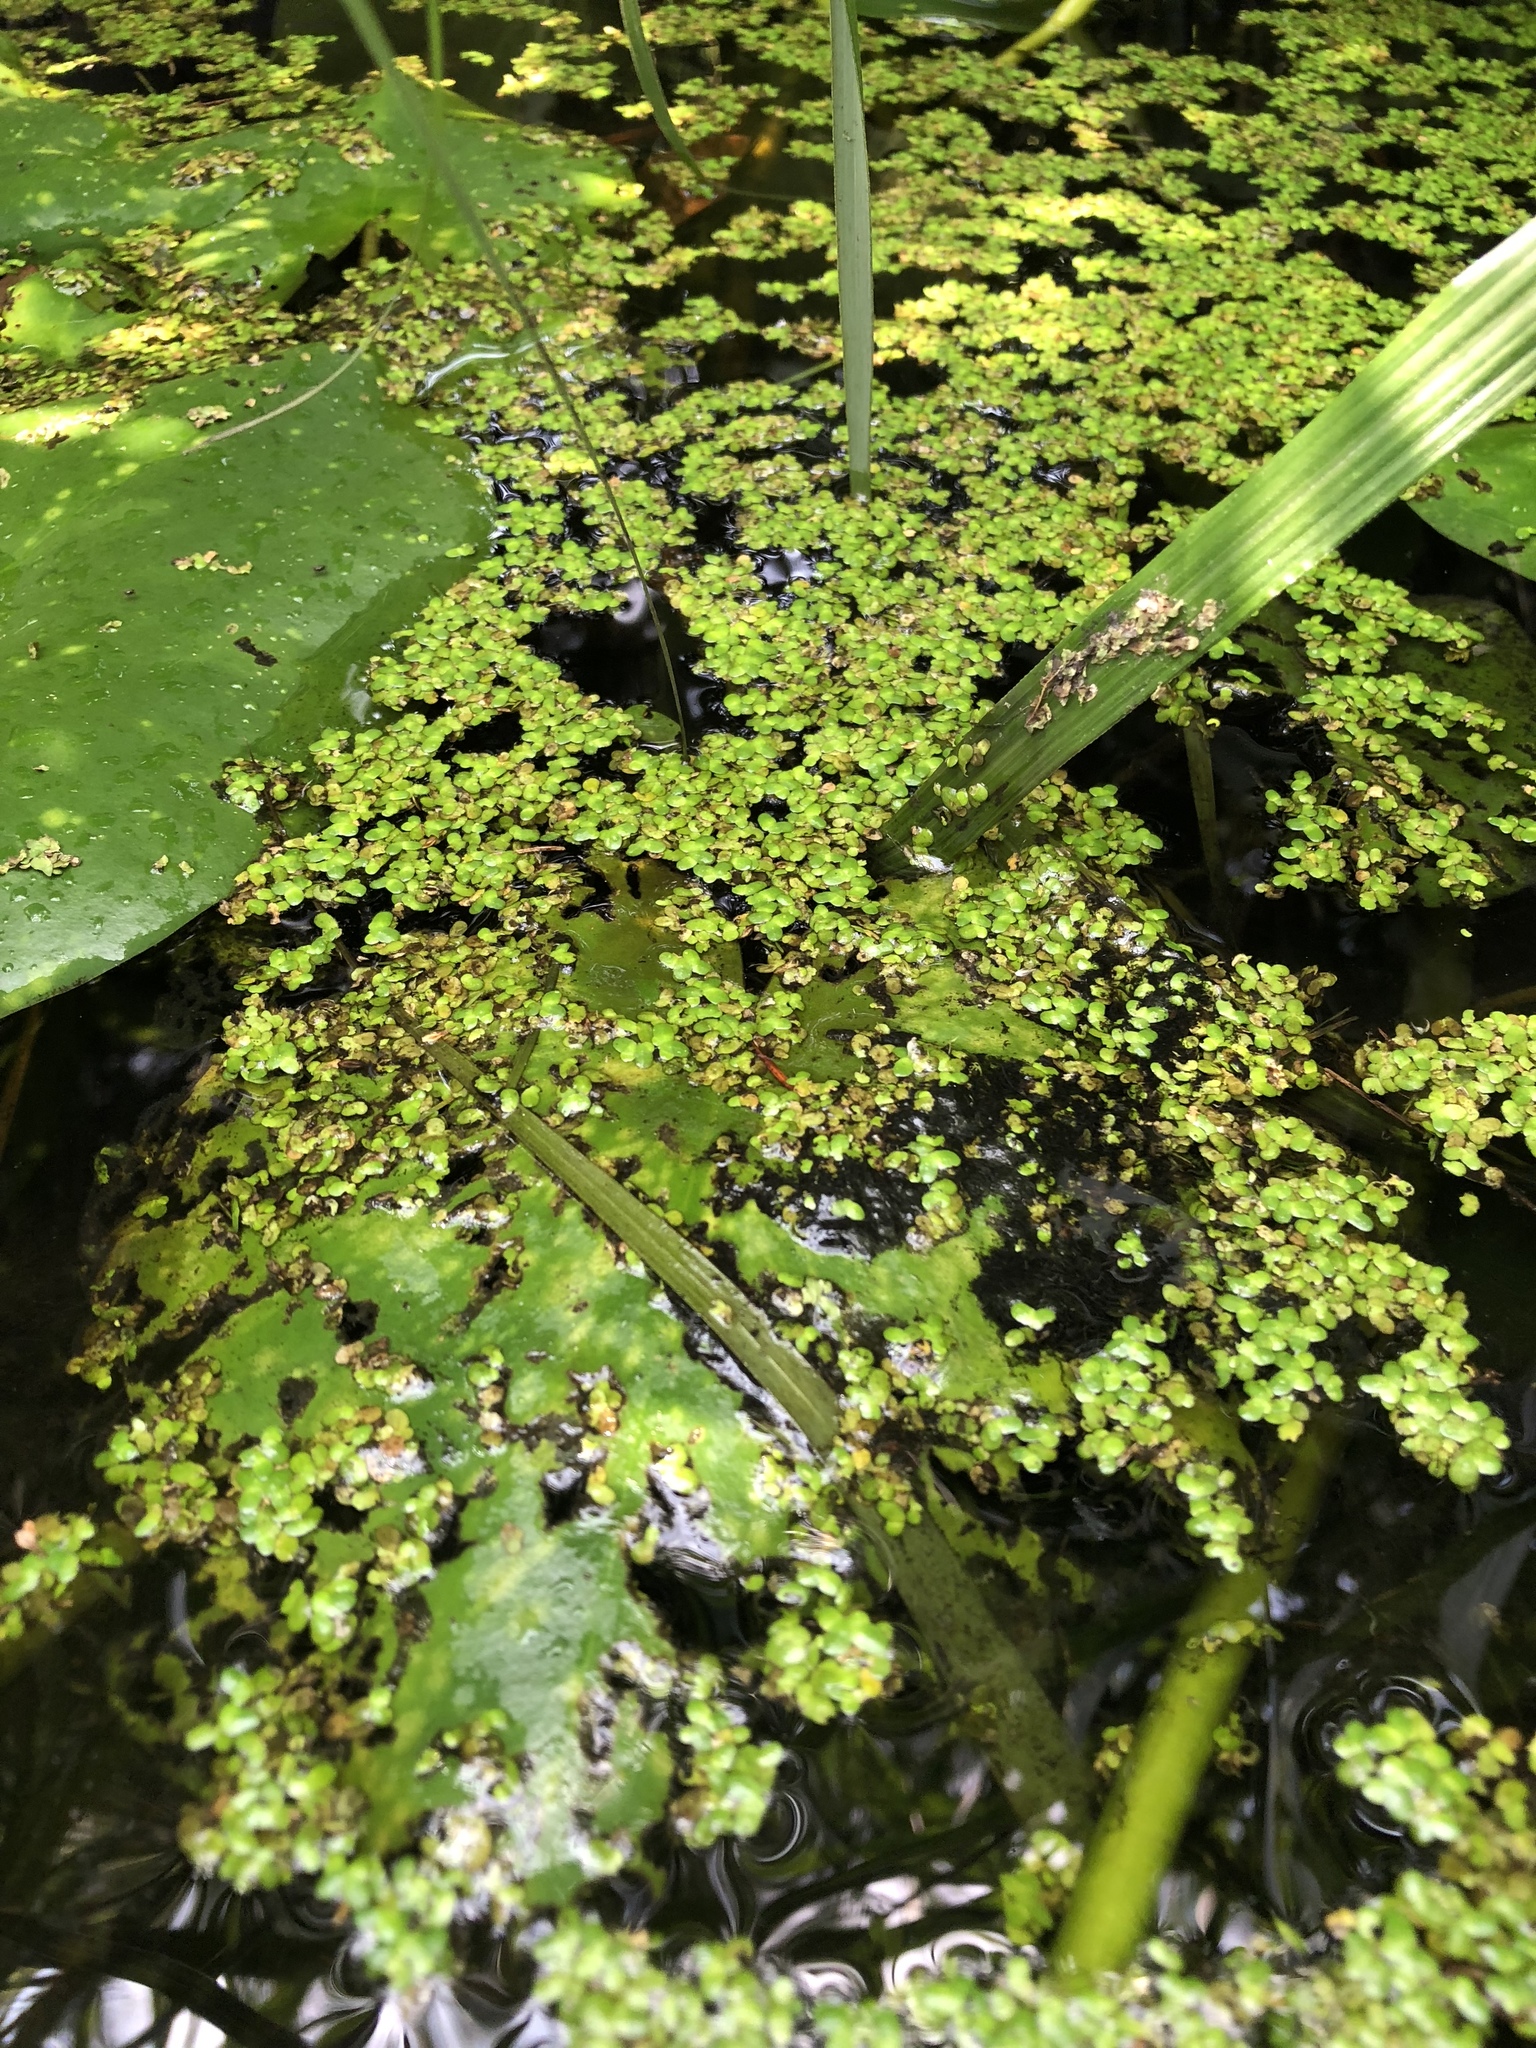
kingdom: Plantae
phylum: Tracheophyta
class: Liliopsida
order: Alismatales
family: Araceae
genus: Lemna
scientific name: Lemna minor
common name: Common duckweed
